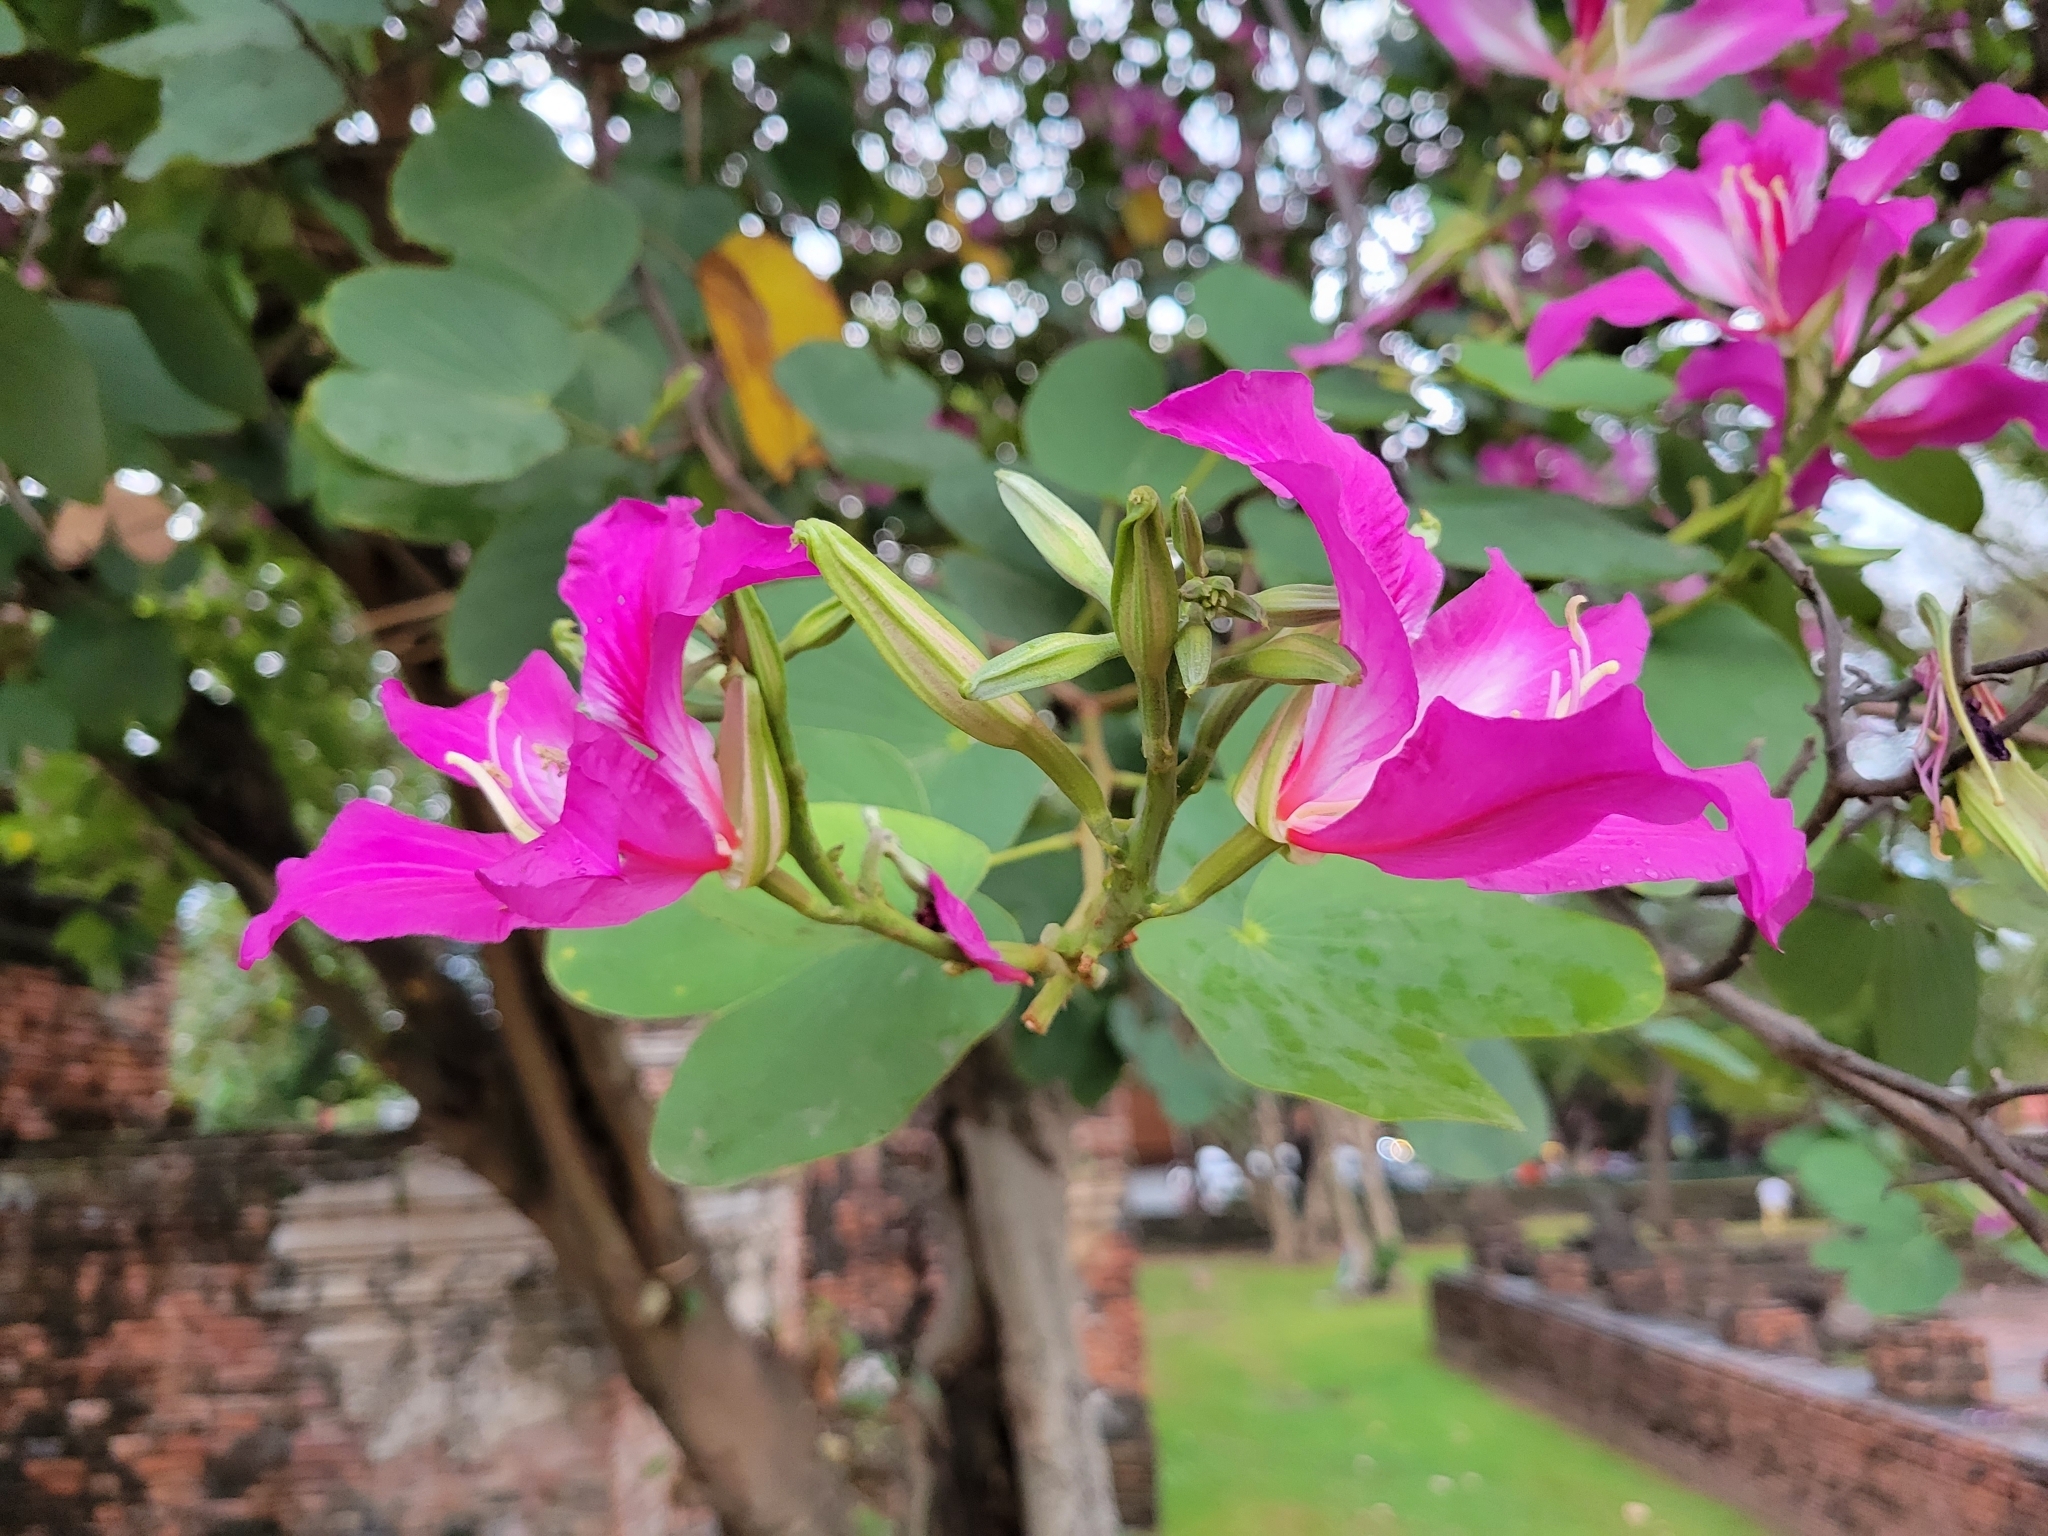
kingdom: Plantae
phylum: Tracheophyta
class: Magnoliopsida
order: Fabales
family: Fabaceae
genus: Bauhinia
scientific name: Bauhinia blakeana
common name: Bauhinia
